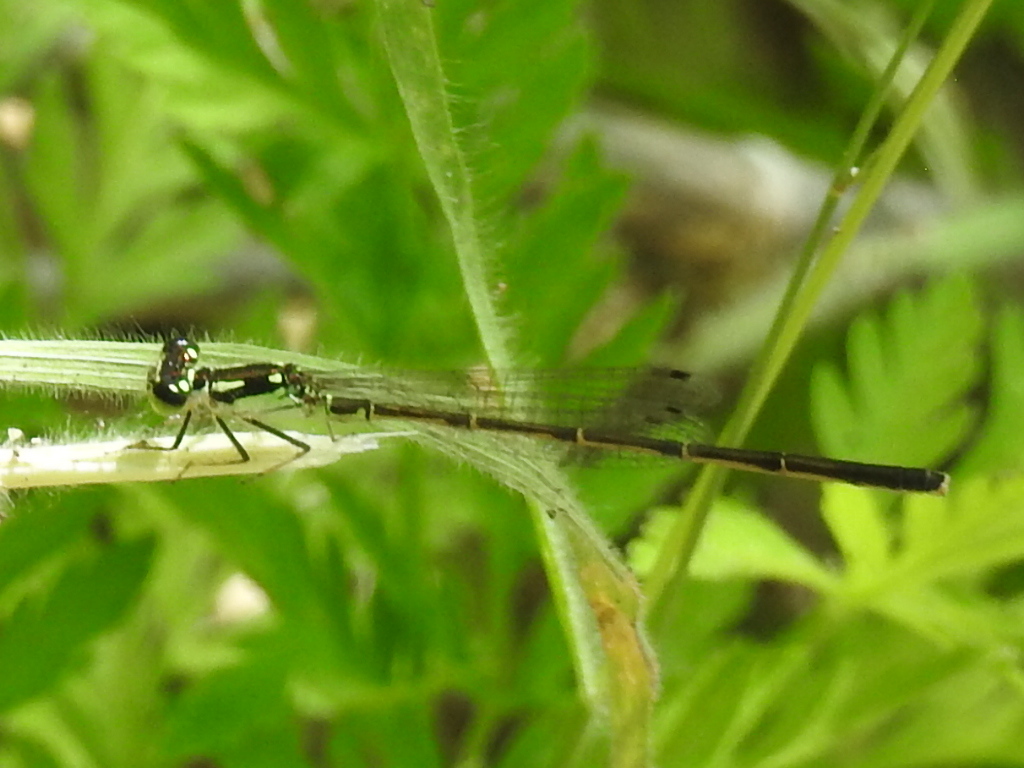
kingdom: Animalia
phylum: Arthropoda
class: Insecta
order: Odonata
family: Coenagrionidae
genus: Ischnura
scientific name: Ischnura posita
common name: Fragile forktail
